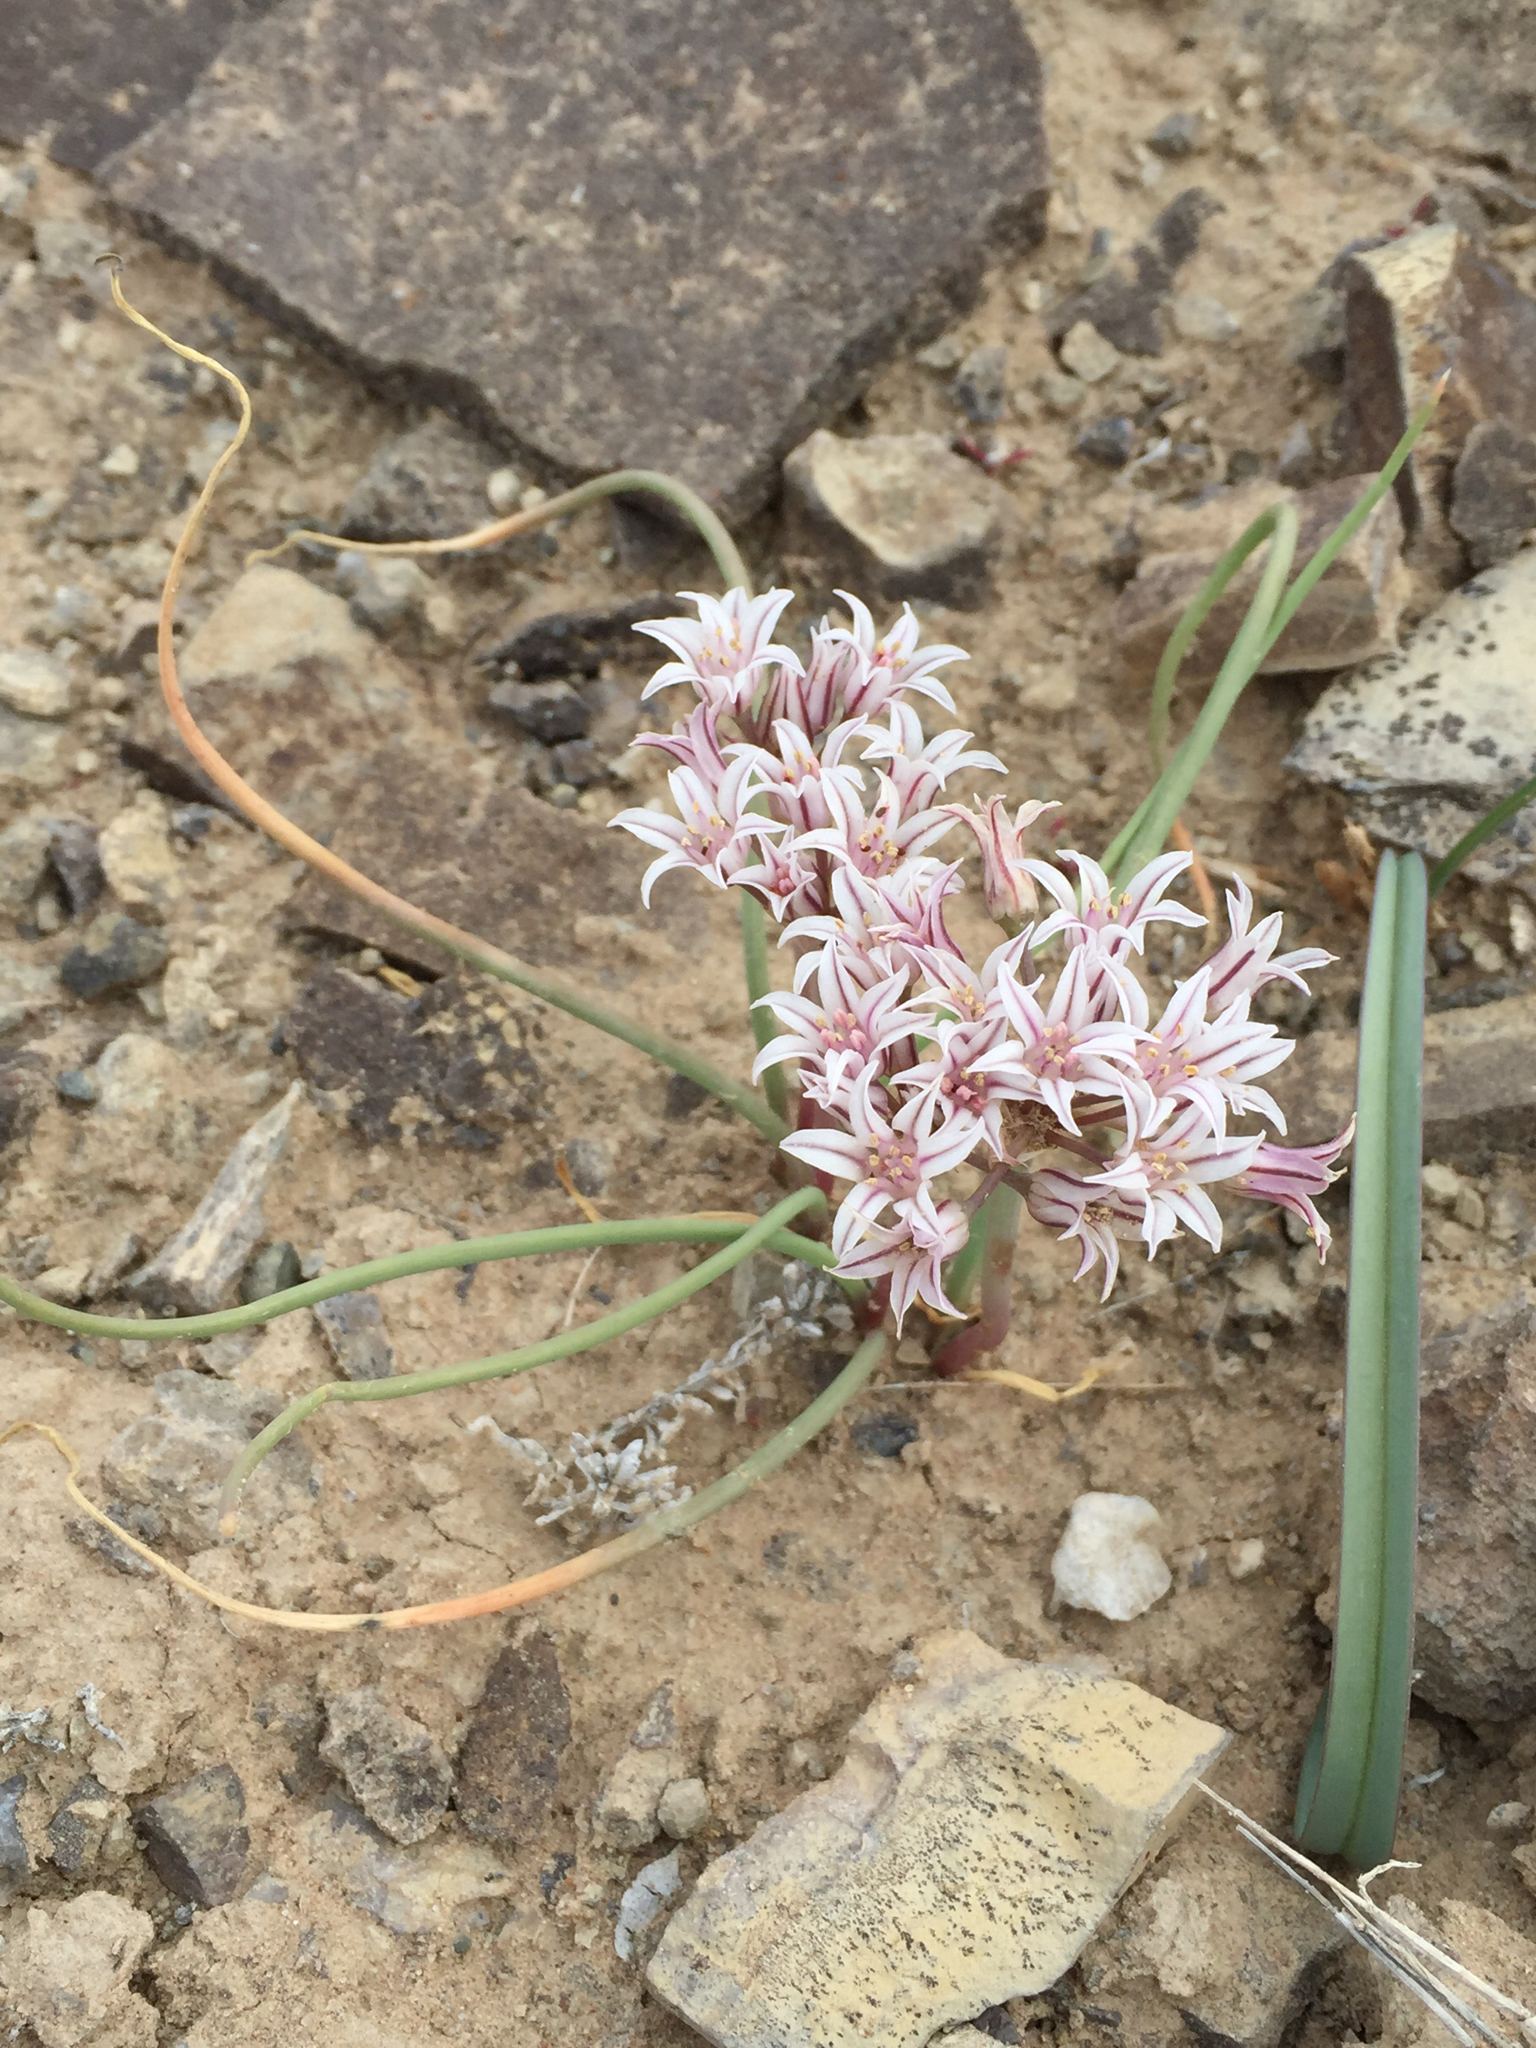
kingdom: Plantae
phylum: Tracheophyta
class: Liliopsida
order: Asparagales
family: Amaryllidaceae
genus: Allium
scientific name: Allium macropetalum
